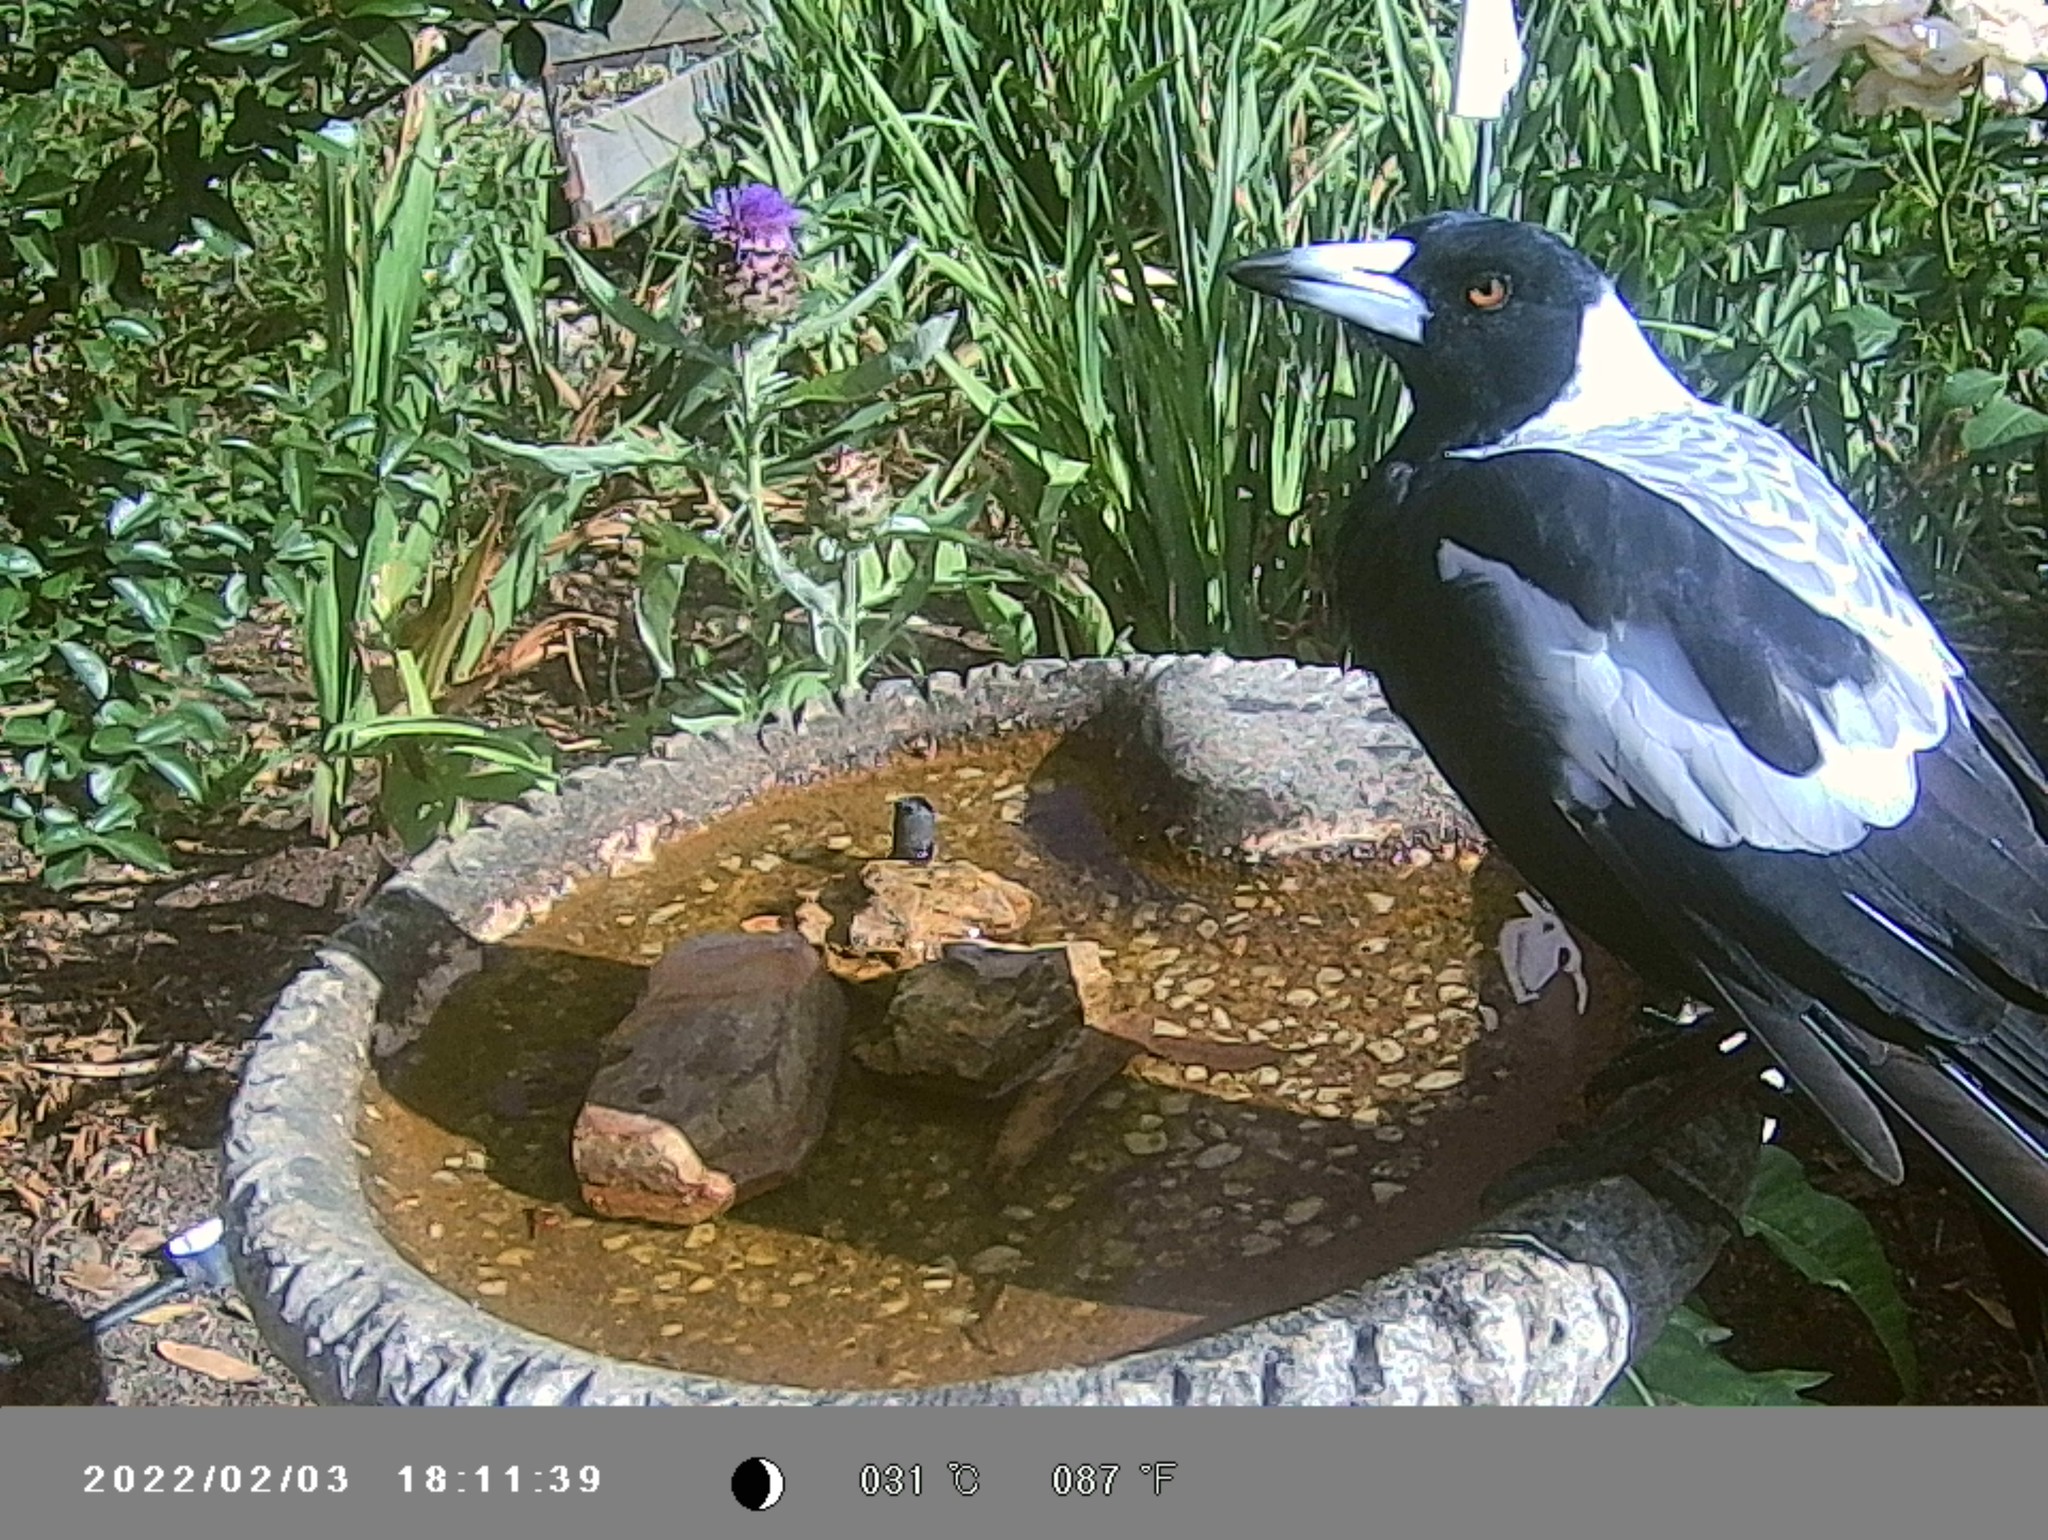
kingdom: Animalia
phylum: Chordata
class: Aves
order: Passeriformes
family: Cracticidae
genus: Gymnorhina
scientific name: Gymnorhina tibicen
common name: Australian magpie
